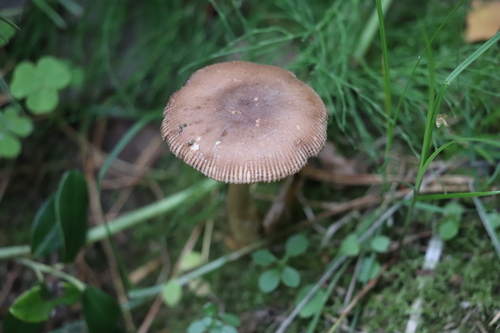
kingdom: Fungi
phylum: Basidiomycota
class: Agaricomycetes
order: Agaricales
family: Amanitaceae
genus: Amanita
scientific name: Amanita fulva
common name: Tawny grisette
